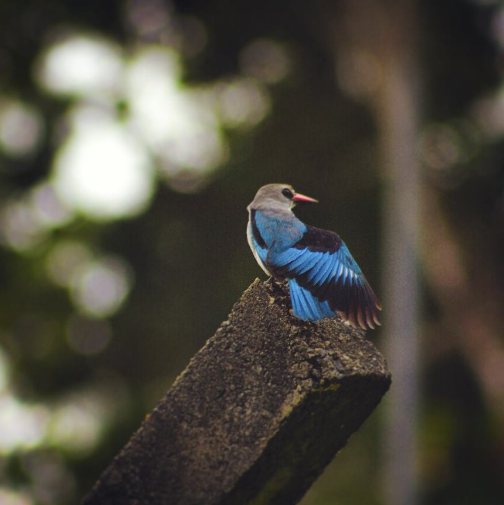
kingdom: Animalia
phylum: Chordata
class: Aves
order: Coraciiformes
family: Alcedinidae
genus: Halcyon
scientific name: Halcyon senegalensis
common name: Woodland kingfisher
